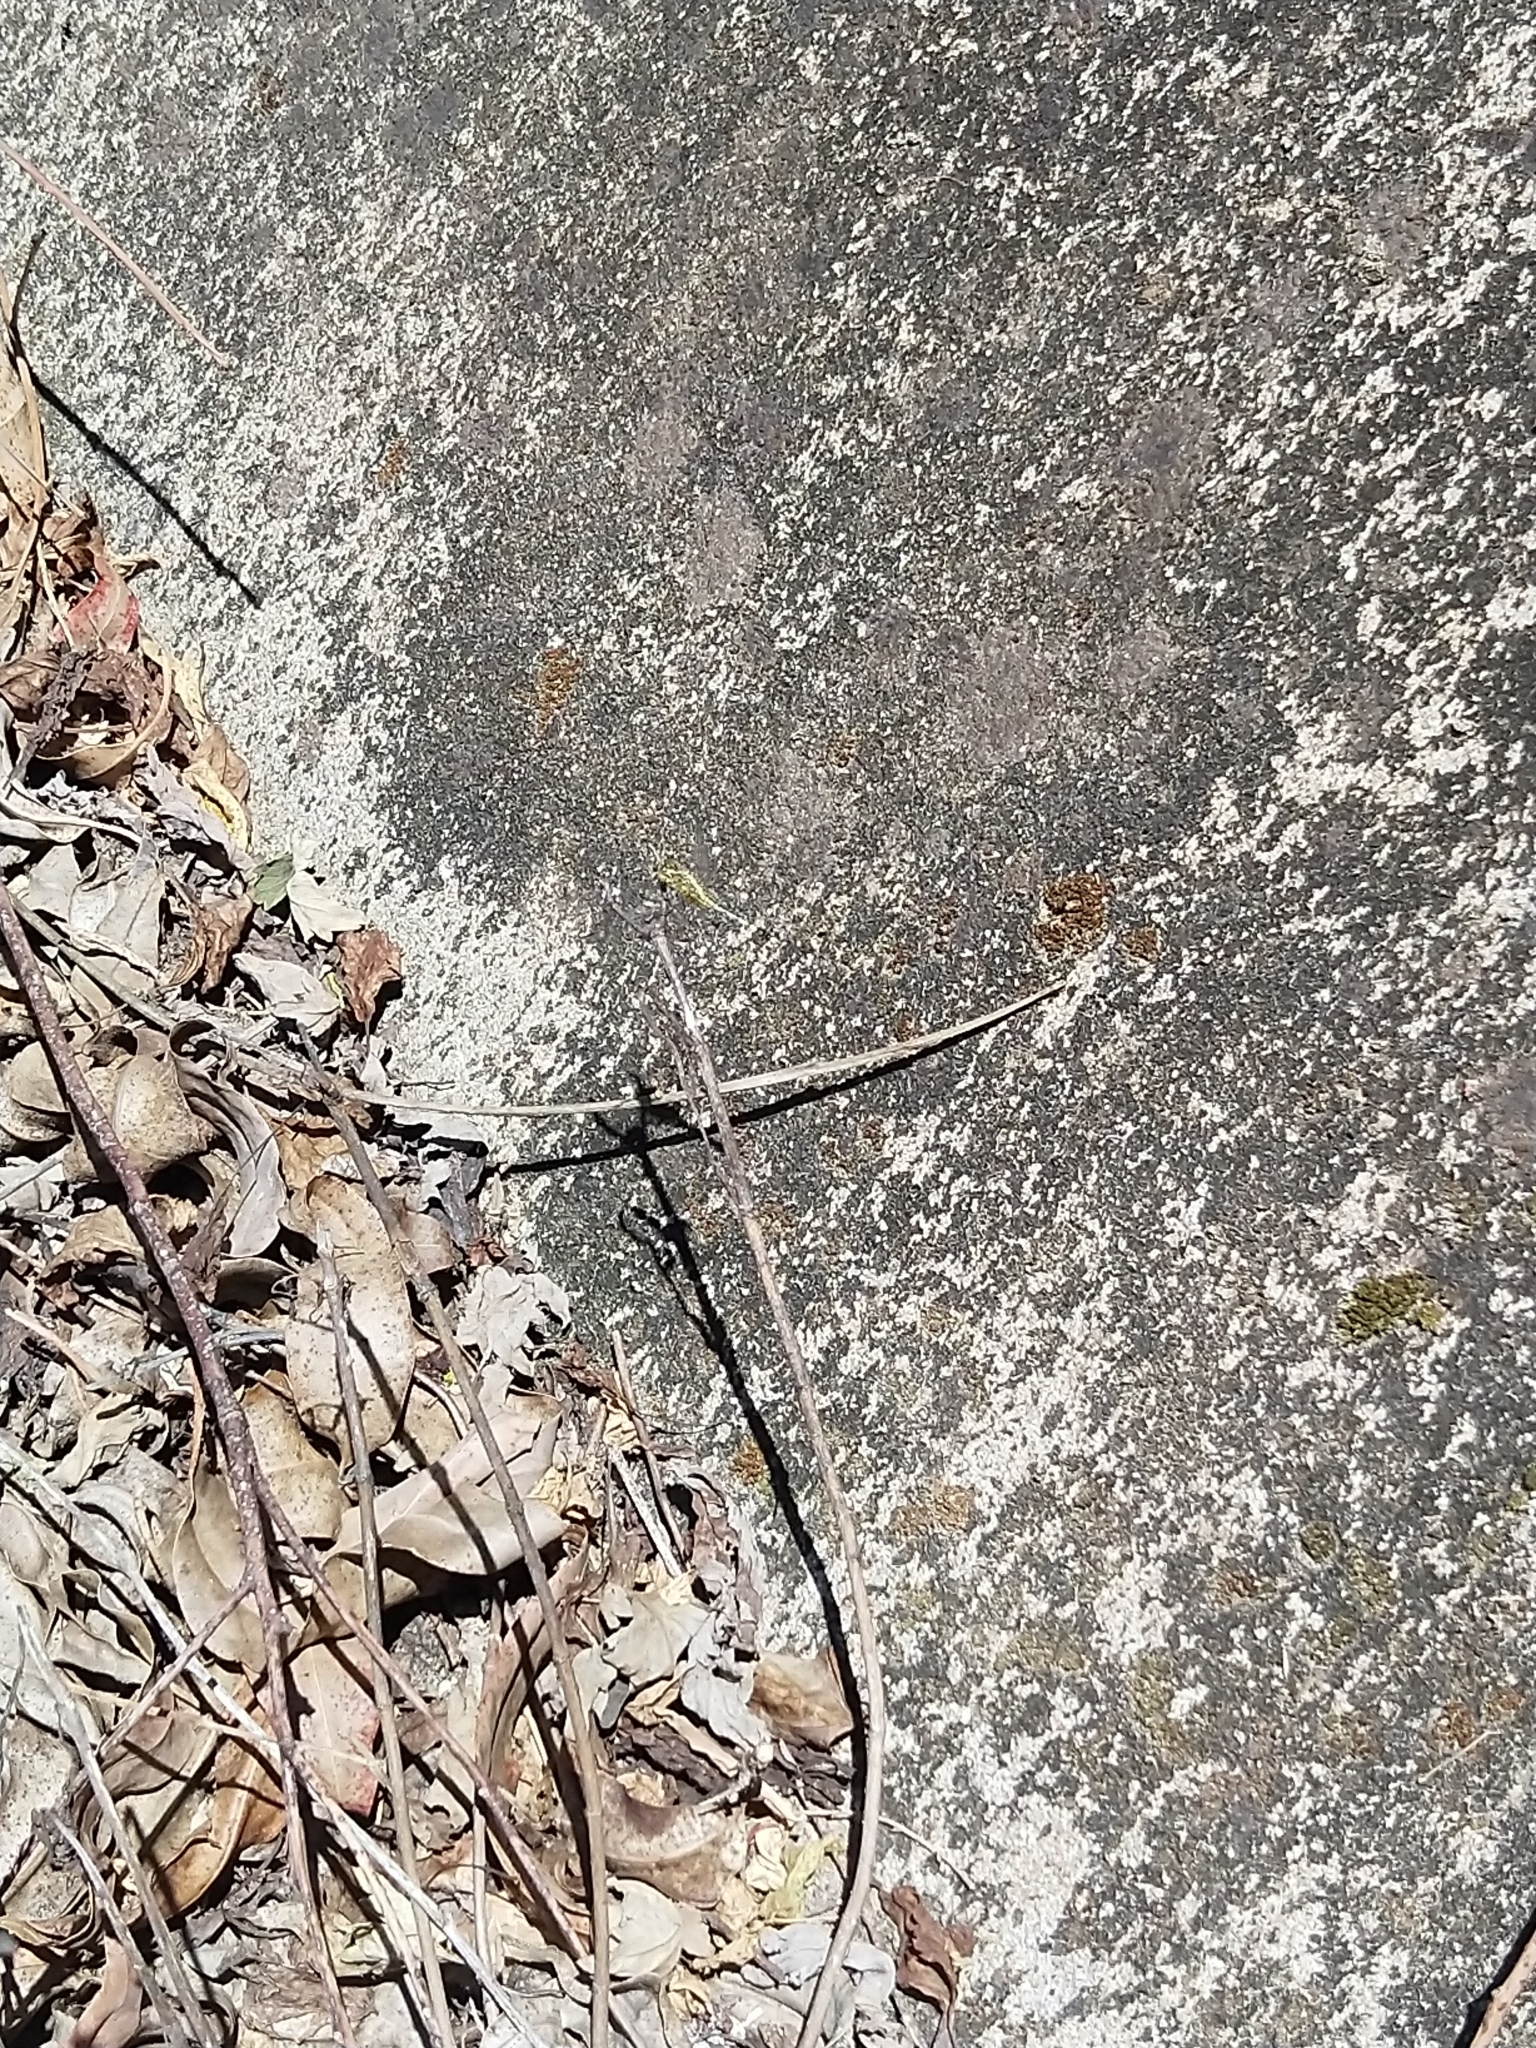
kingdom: Animalia
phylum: Arthropoda
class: Insecta
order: Odonata
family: Libellulidae
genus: Diplacodes
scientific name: Diplacodes trivialis
